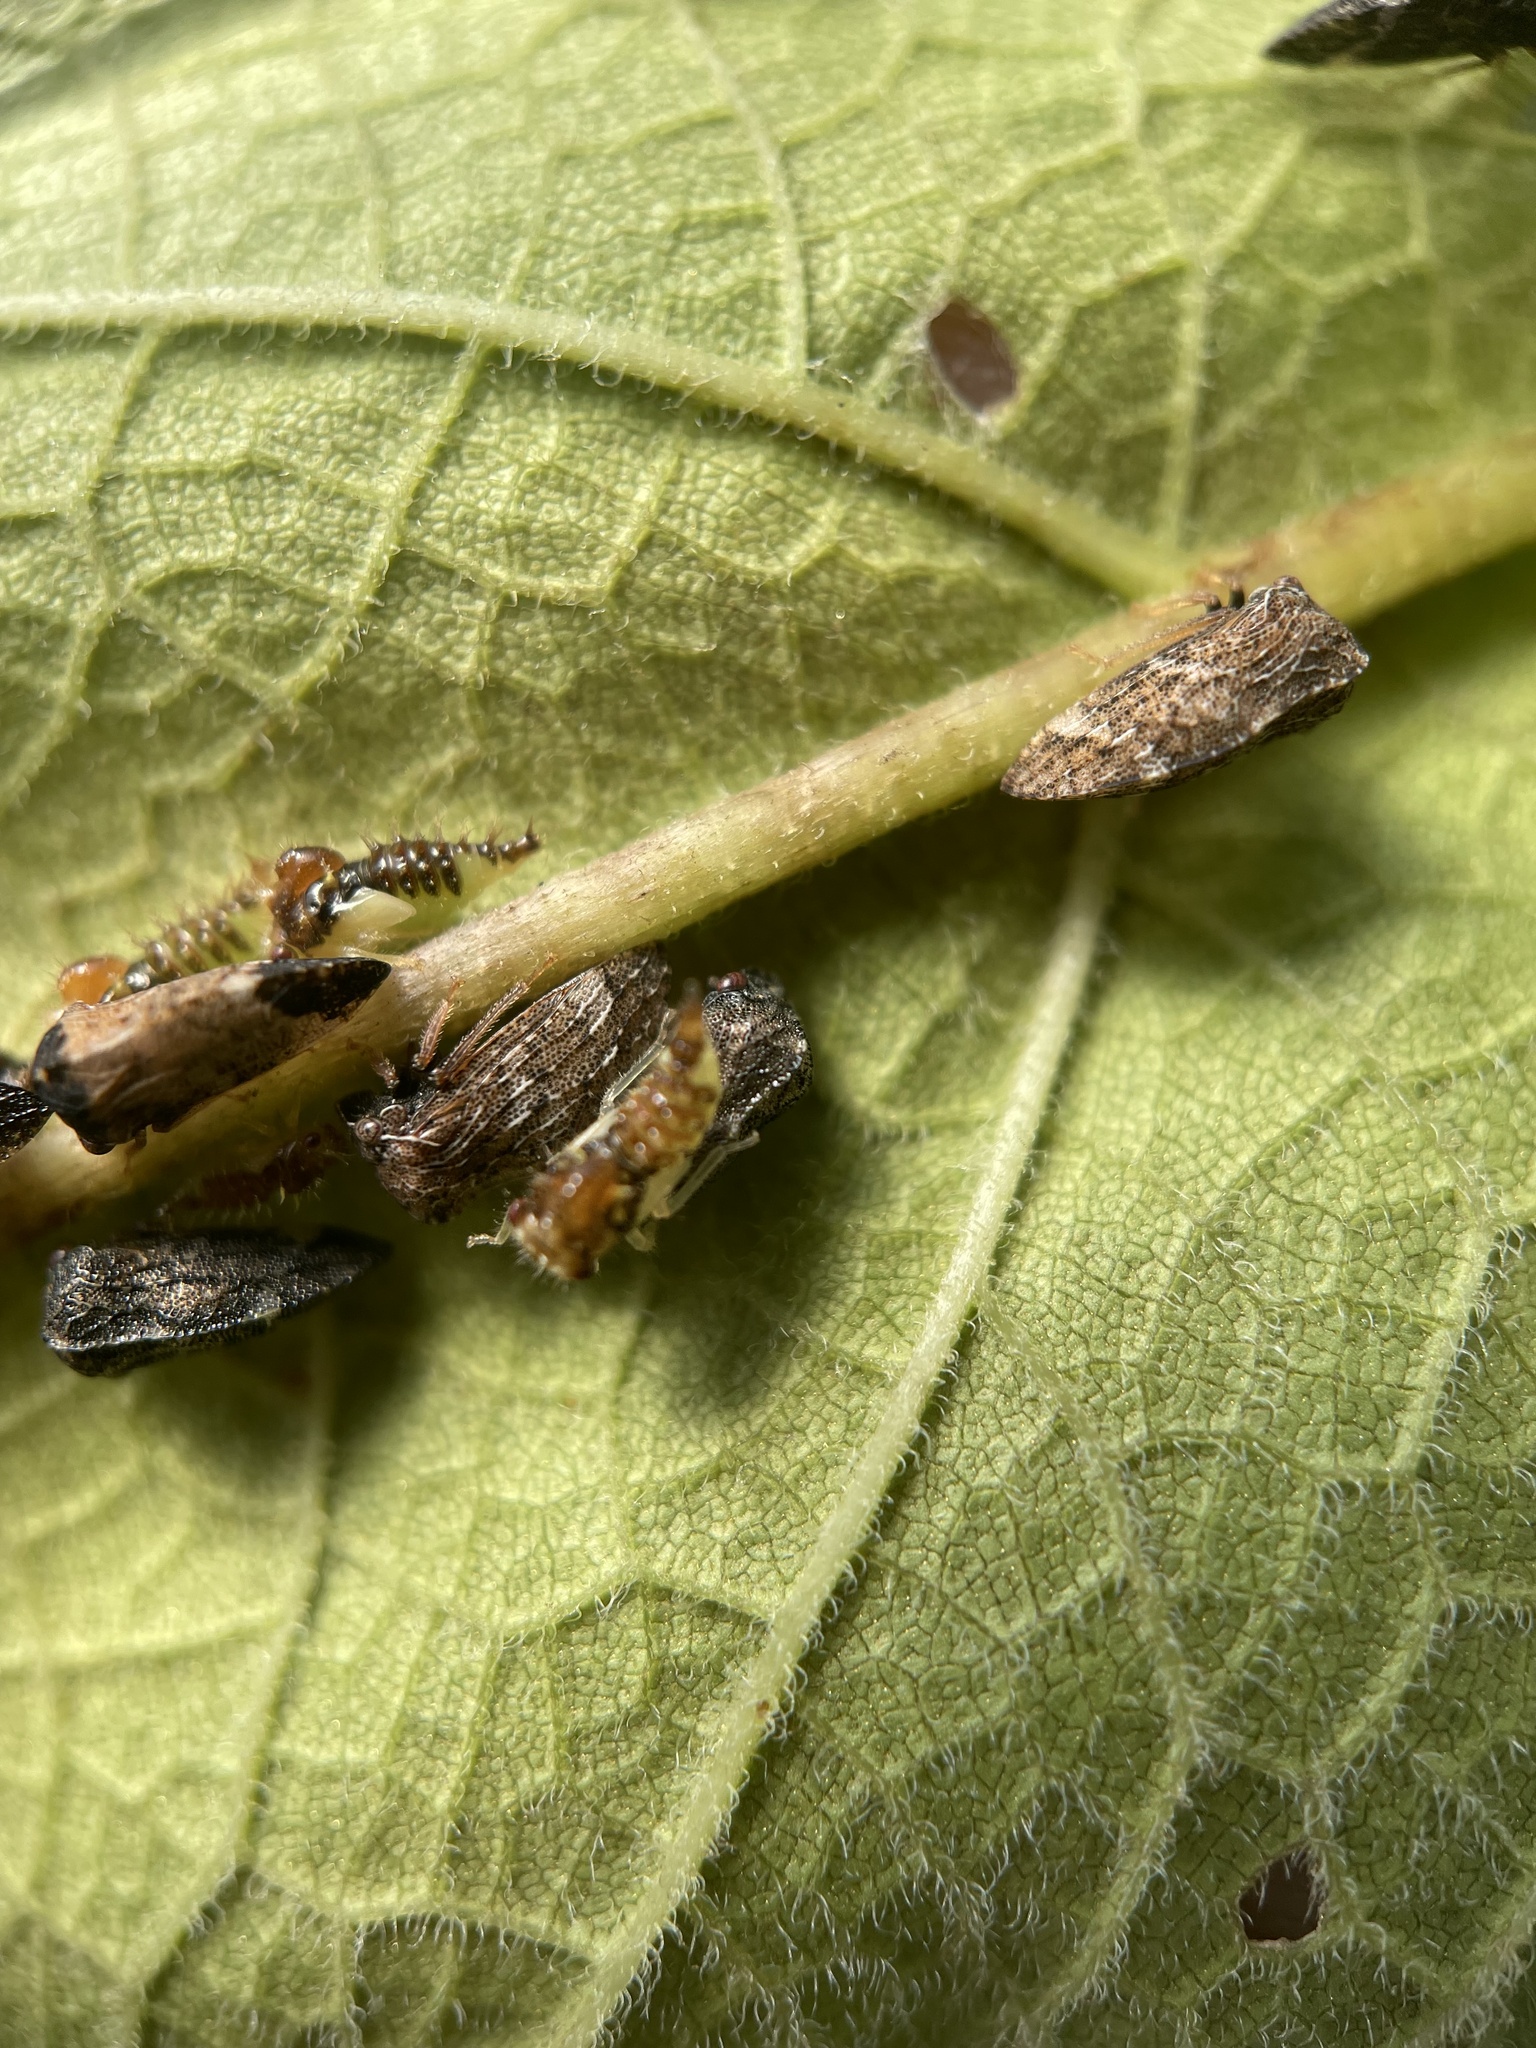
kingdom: Animalia
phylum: Arthropoda
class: Insecta
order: Hemiptera
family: Membracidae
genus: Publilia
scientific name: Publilia concava
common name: Aster treehopper
